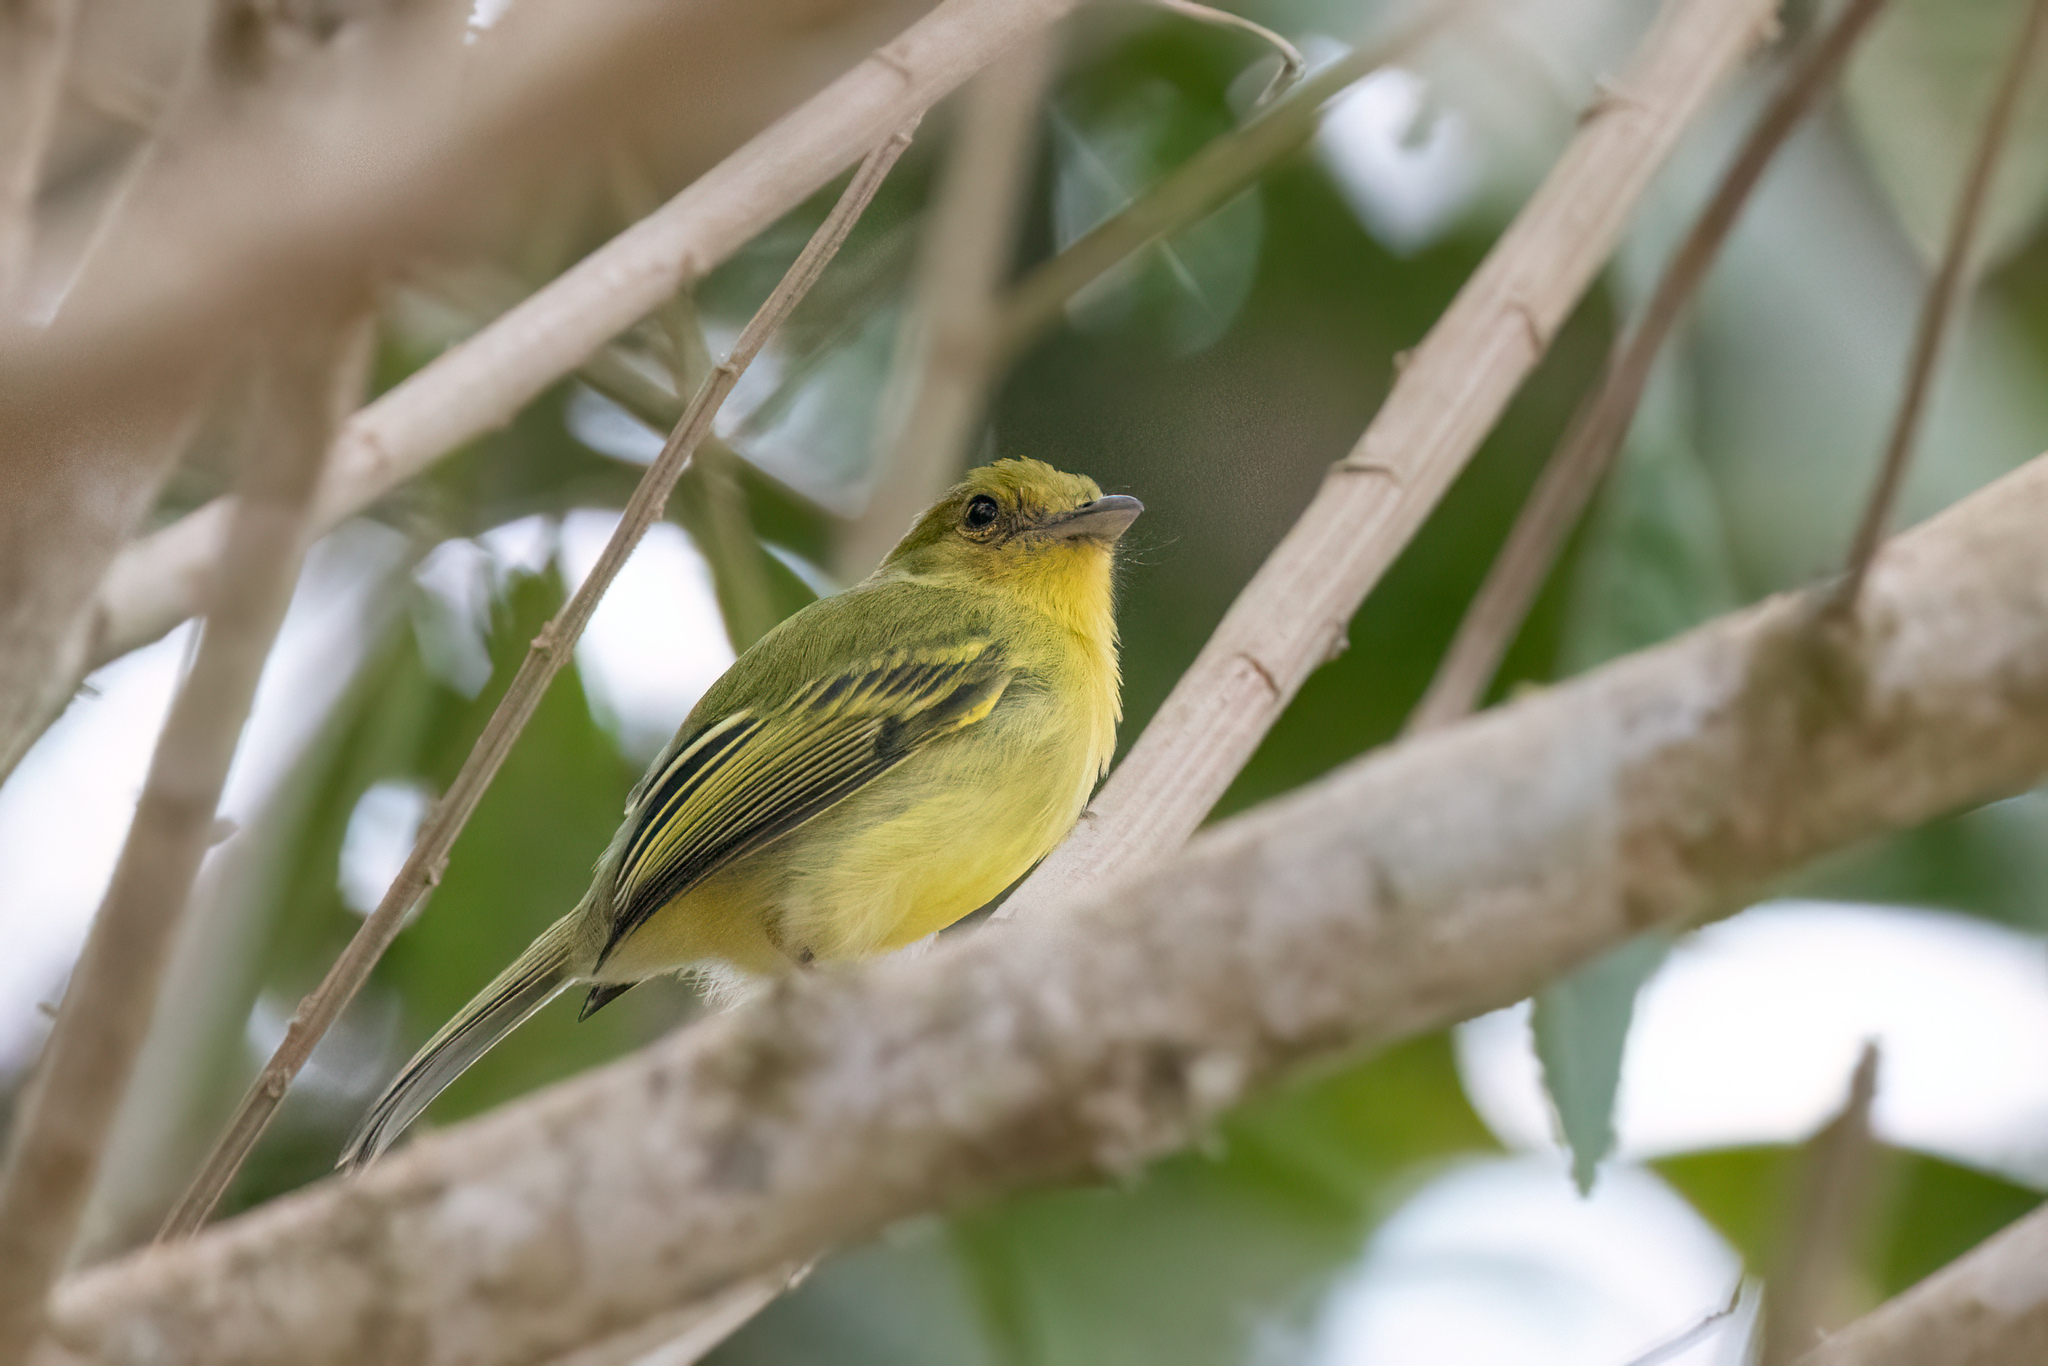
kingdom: Animalia
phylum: Chordata
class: Aves
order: Passeriformes
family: Tyrannidae
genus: Tolmomyias
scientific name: Tolmomyias flaviventris
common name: Ochre-lored flatbill
